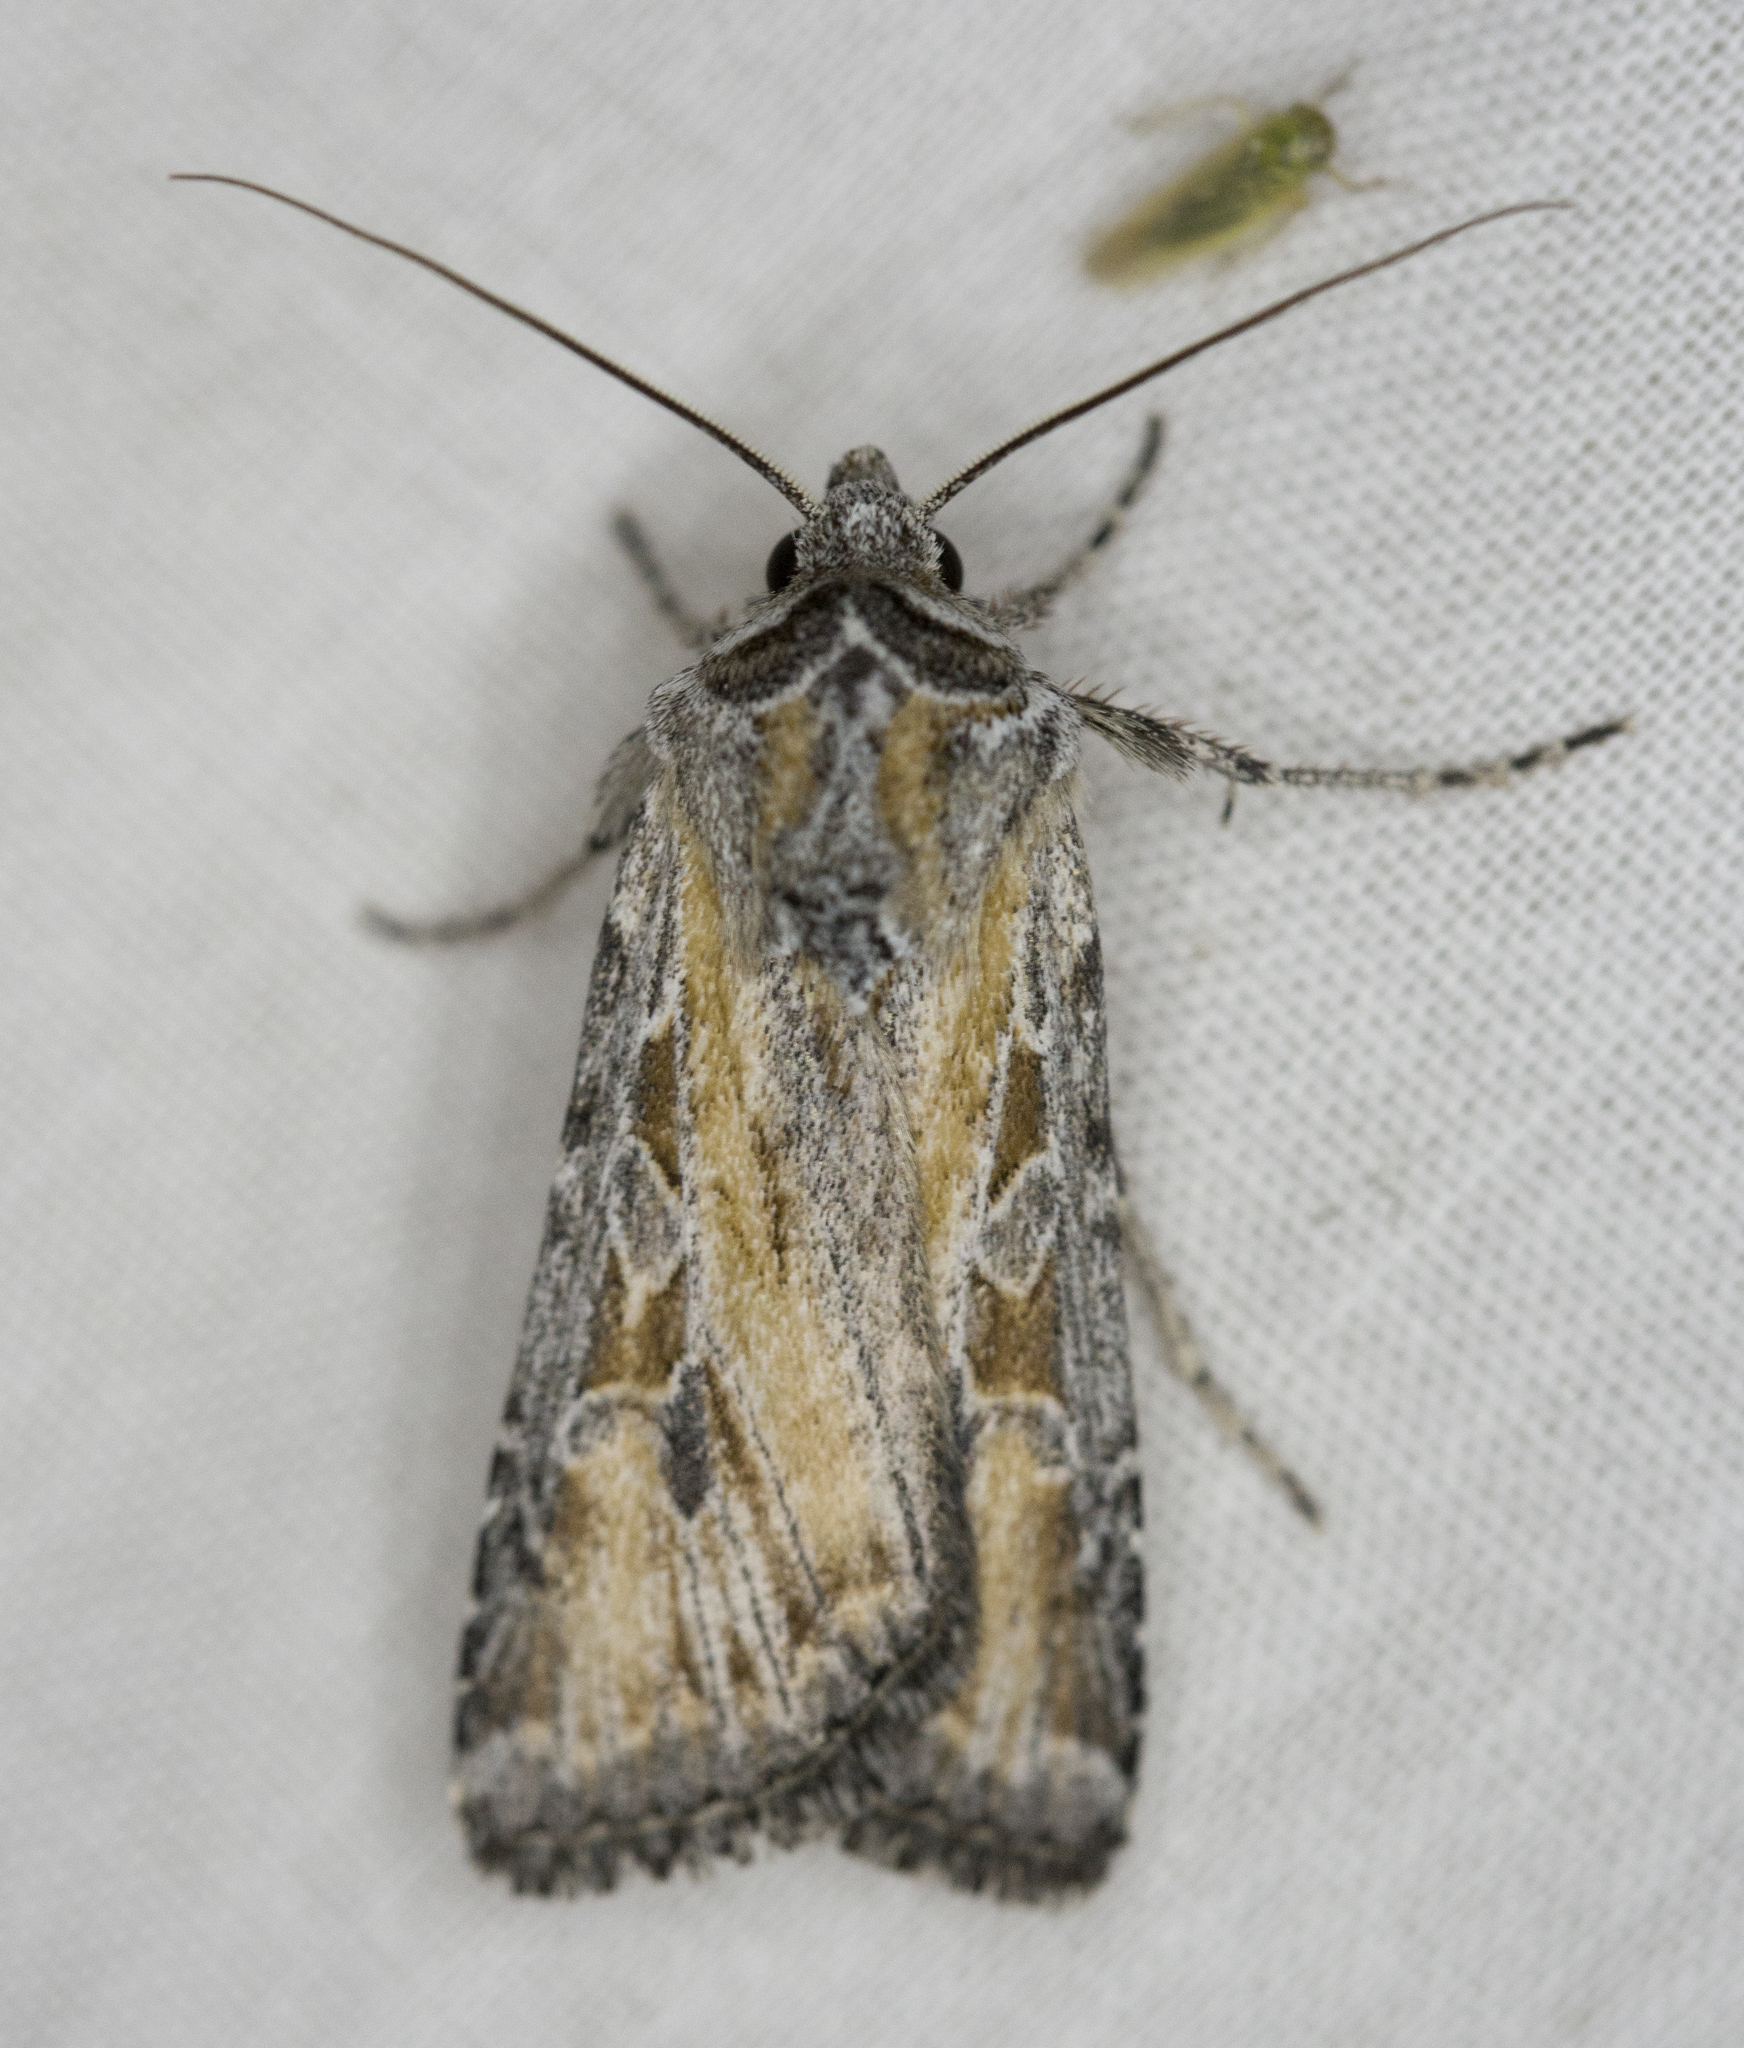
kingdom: Animalia
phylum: Arthropoda
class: Insecta
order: Lepidoptera
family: Noctuidae
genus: Euxoa
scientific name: Euxoa pluralis
